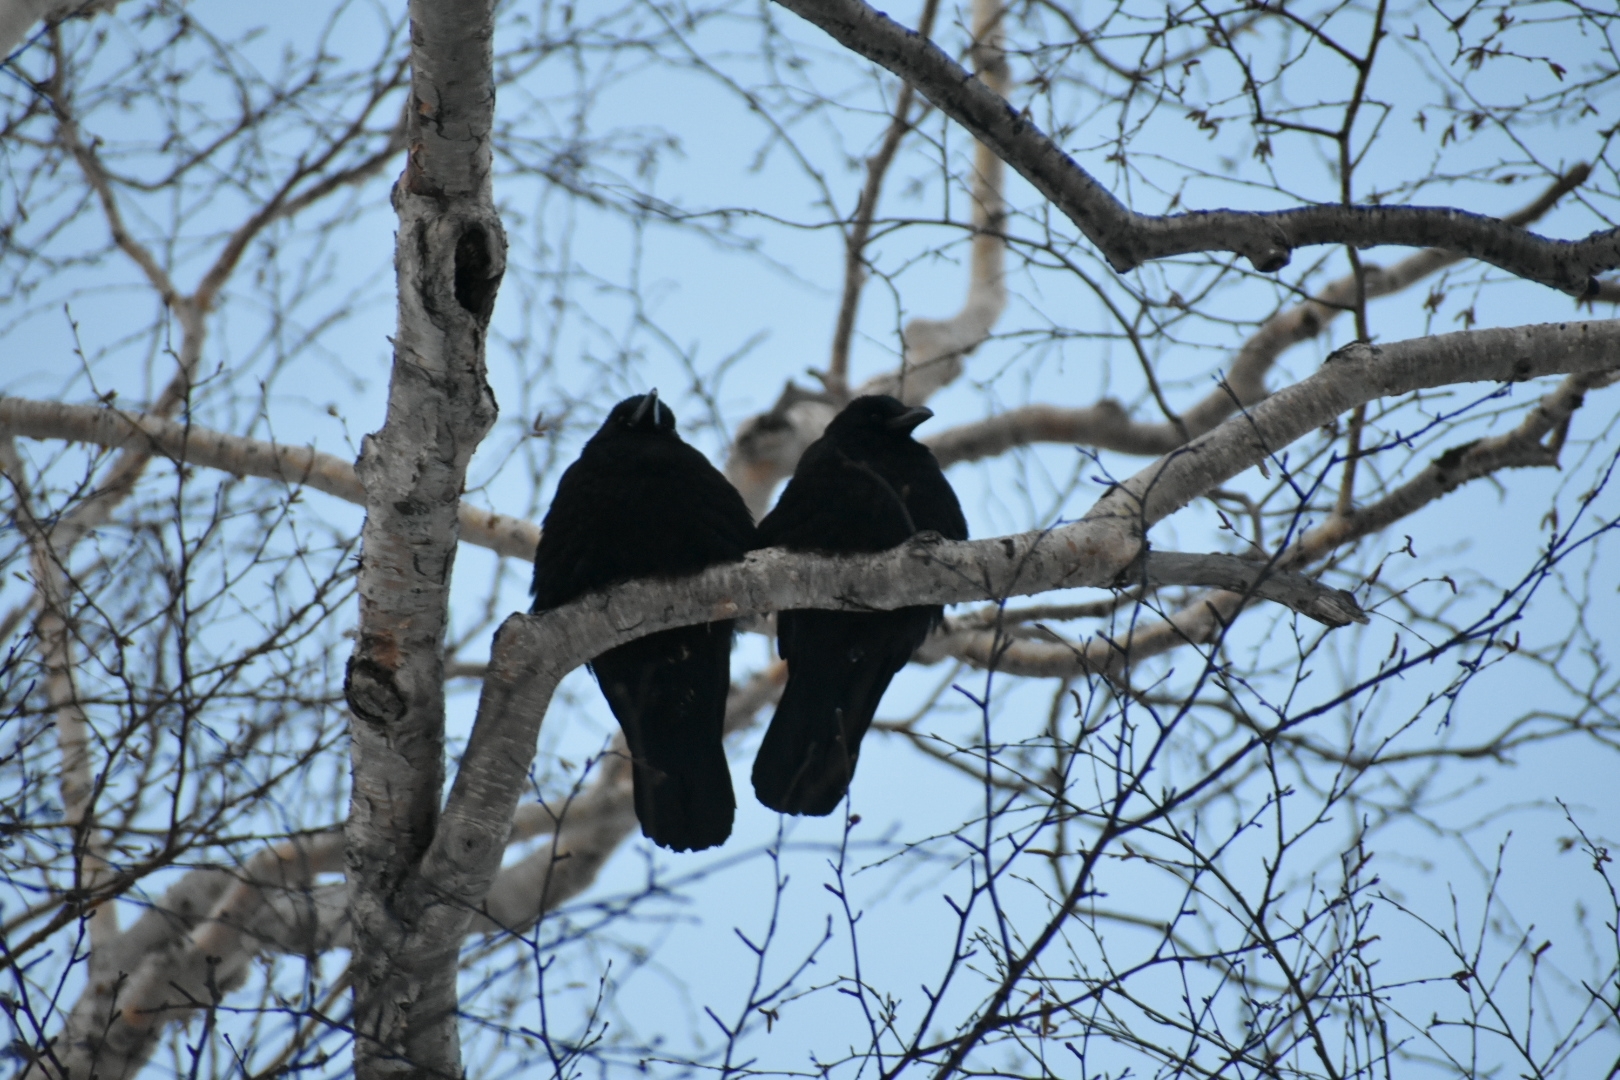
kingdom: Animalia
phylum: Chordata
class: Aves
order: Passeriformes
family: Corvidae
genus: Corvus
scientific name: Corvus corone
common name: Carrion crow
